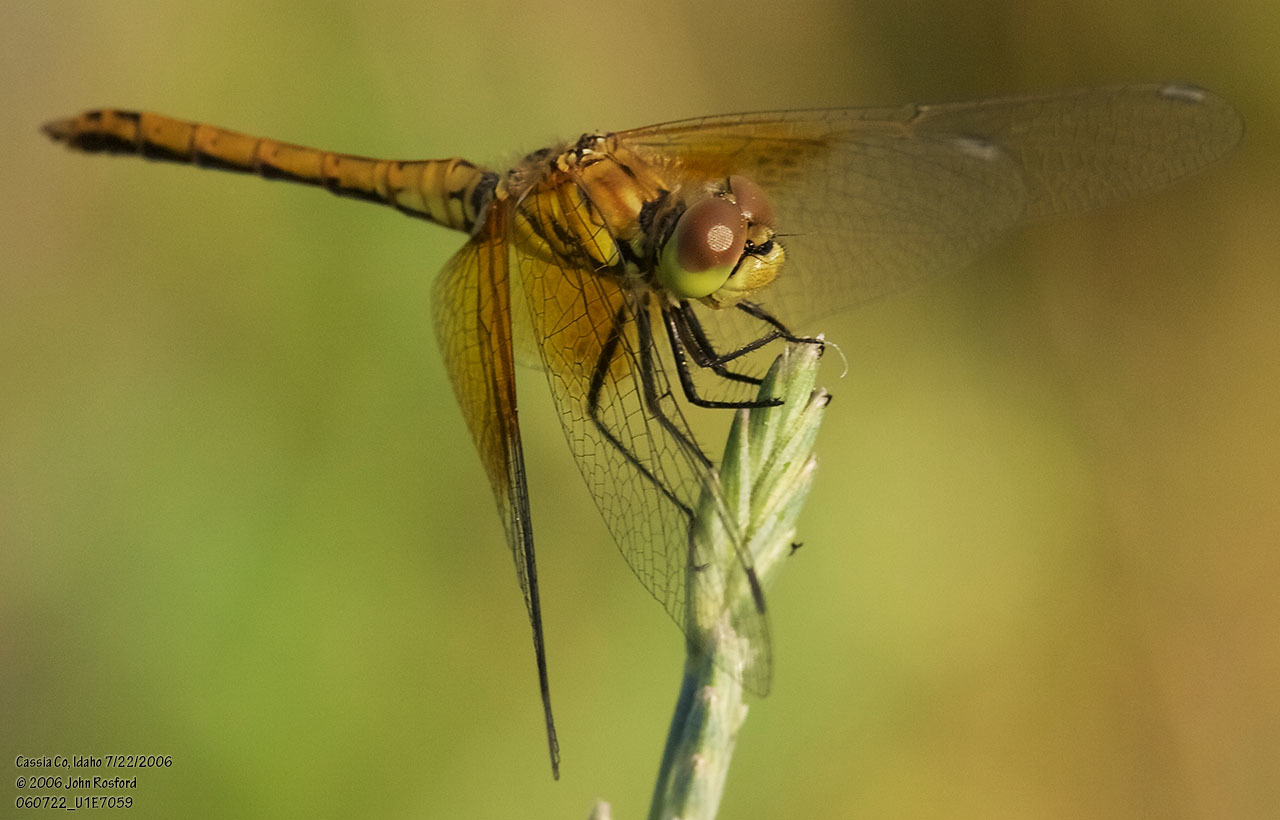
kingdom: Animalia
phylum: Arthropoda
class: Insecta
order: Odonata
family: Libellulidae
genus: Sympetrum
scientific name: Sympetrum semicinctum
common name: Band-winged meadowhawk
